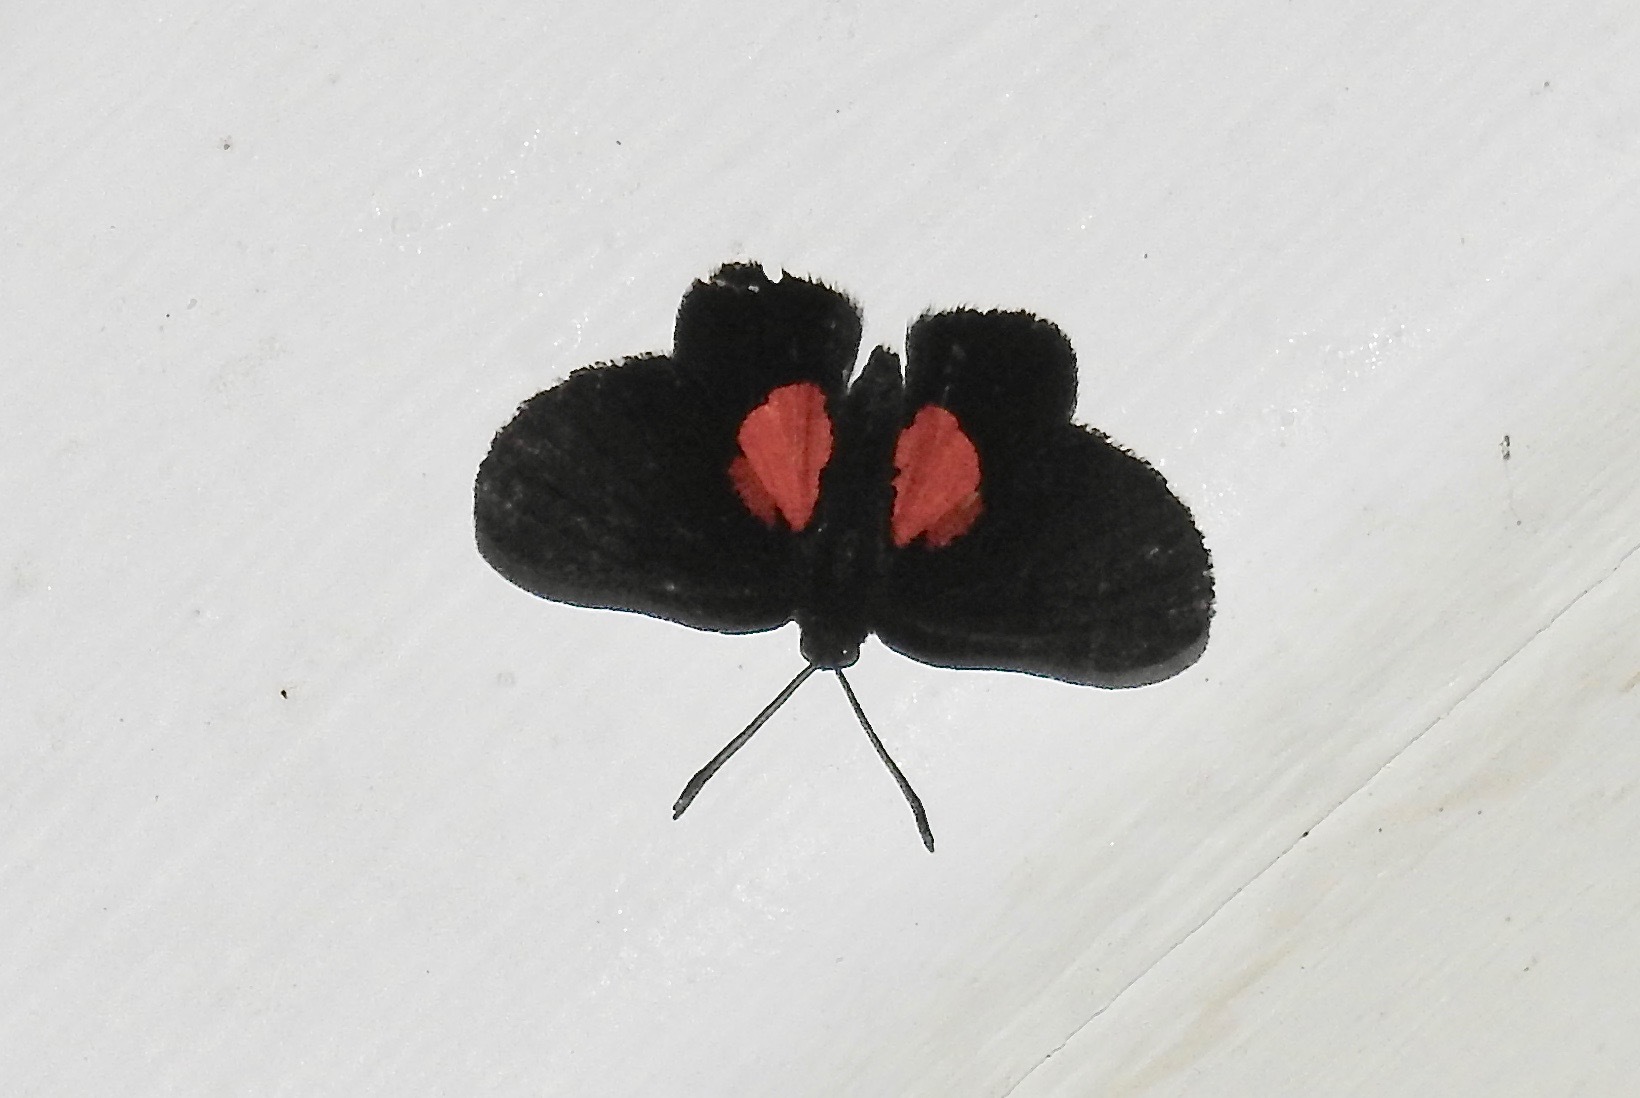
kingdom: Animalia
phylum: Arthropoda
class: Insecta
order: Lepidoptera
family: Riodinidae
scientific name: Riodinidae
